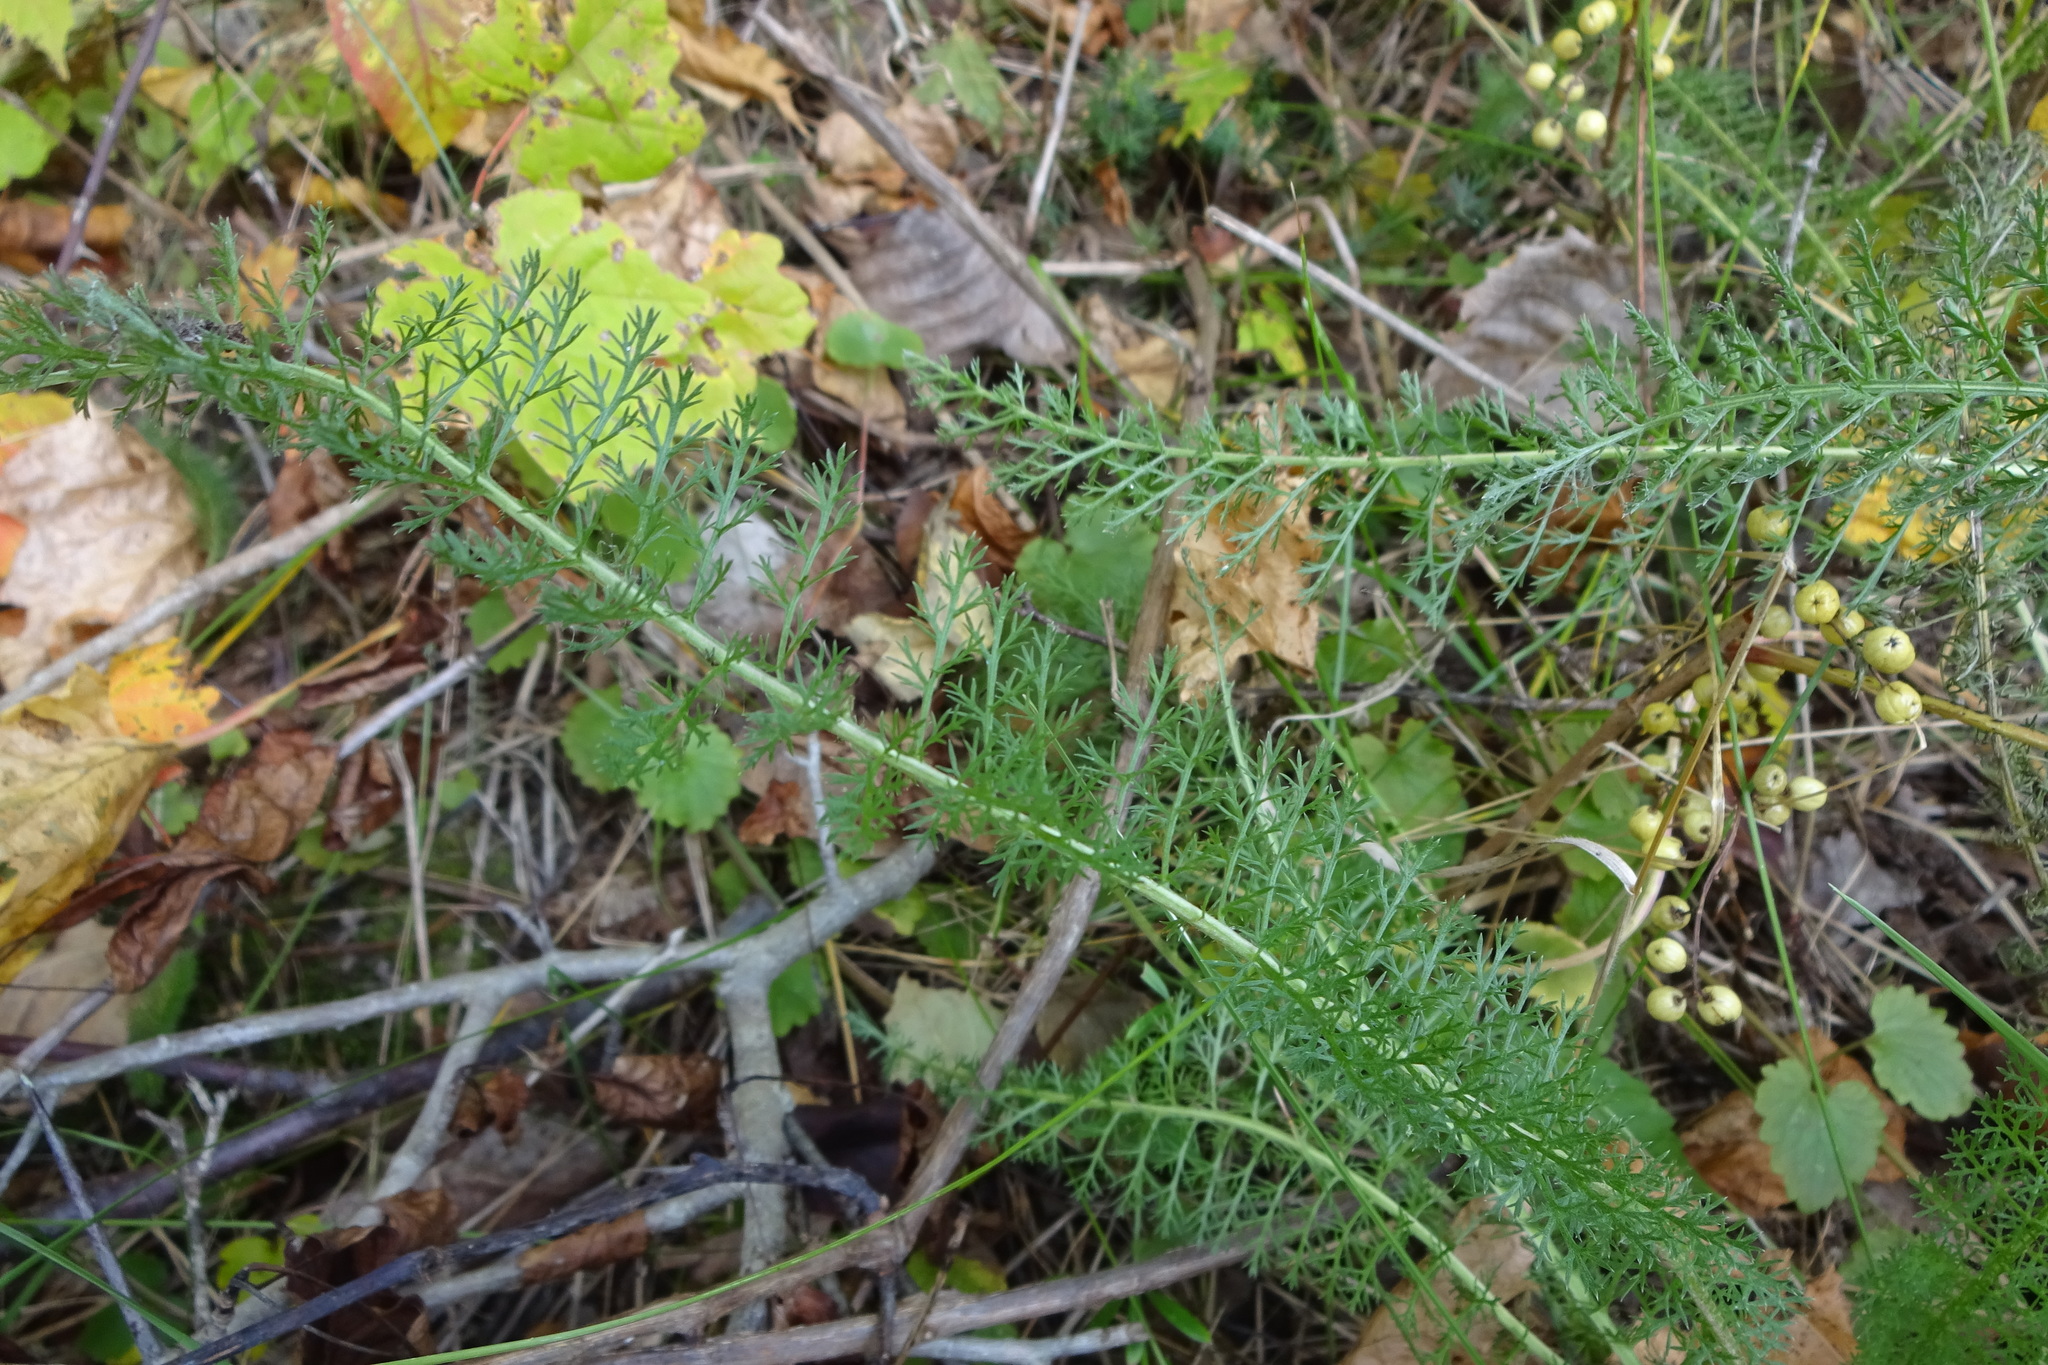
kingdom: Plantae
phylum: Tracheophyta
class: Magnoliopsida
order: Asterales
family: Asteraceae
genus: Achillea
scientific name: Achillea millefolium
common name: Yarrow
